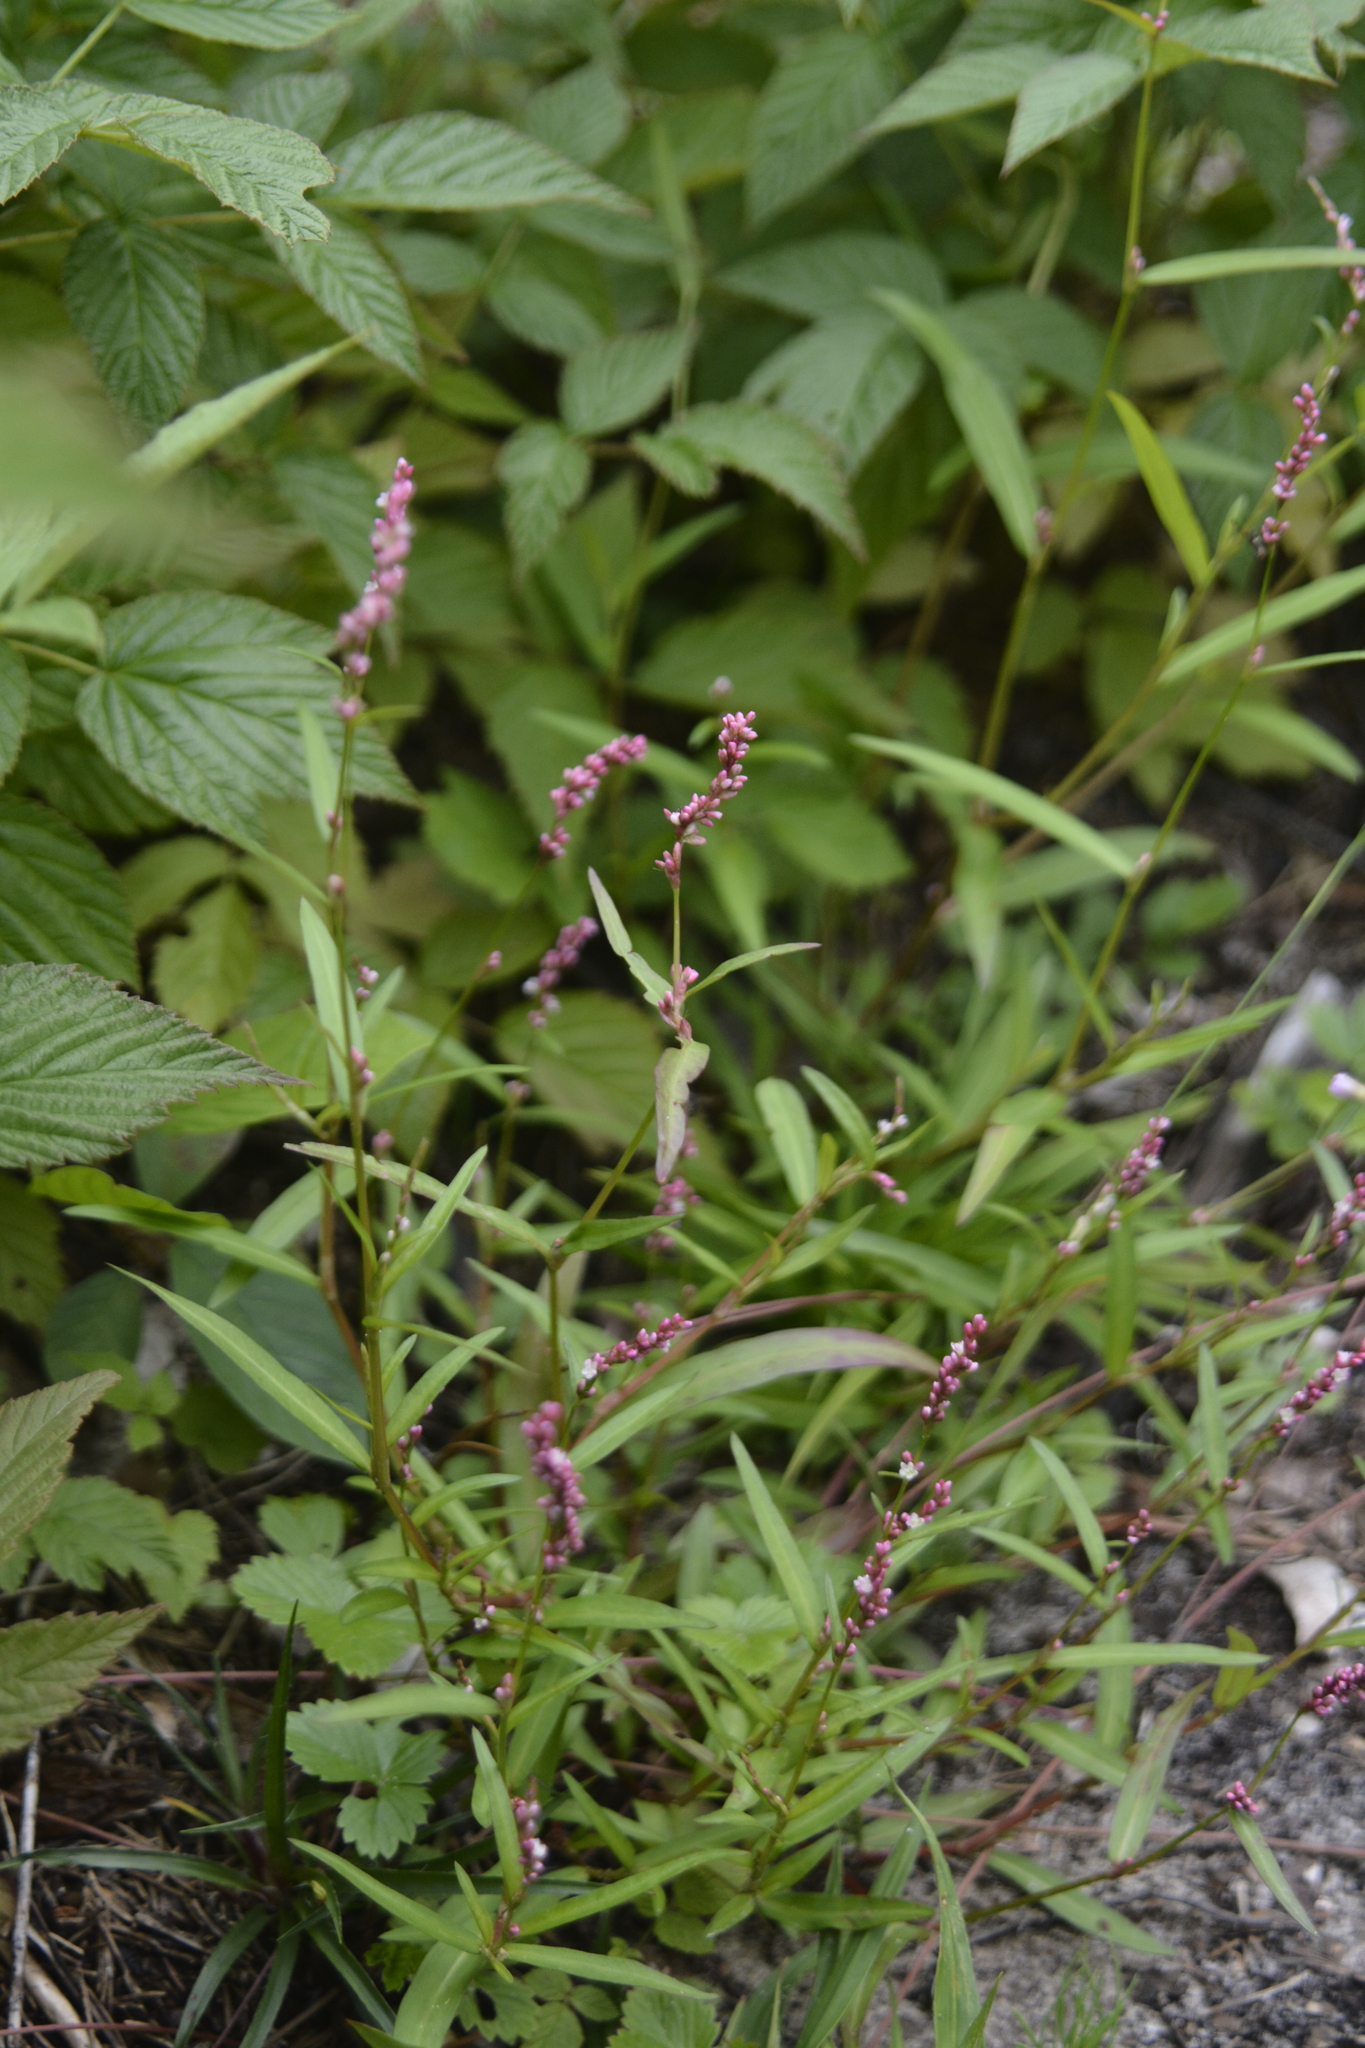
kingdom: Plantae
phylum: Tracheophyta
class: Magnoliopsida
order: Caryophyllales
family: Polygonaceae
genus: Persicaria
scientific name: Persicaria maculosa
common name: Redshank
